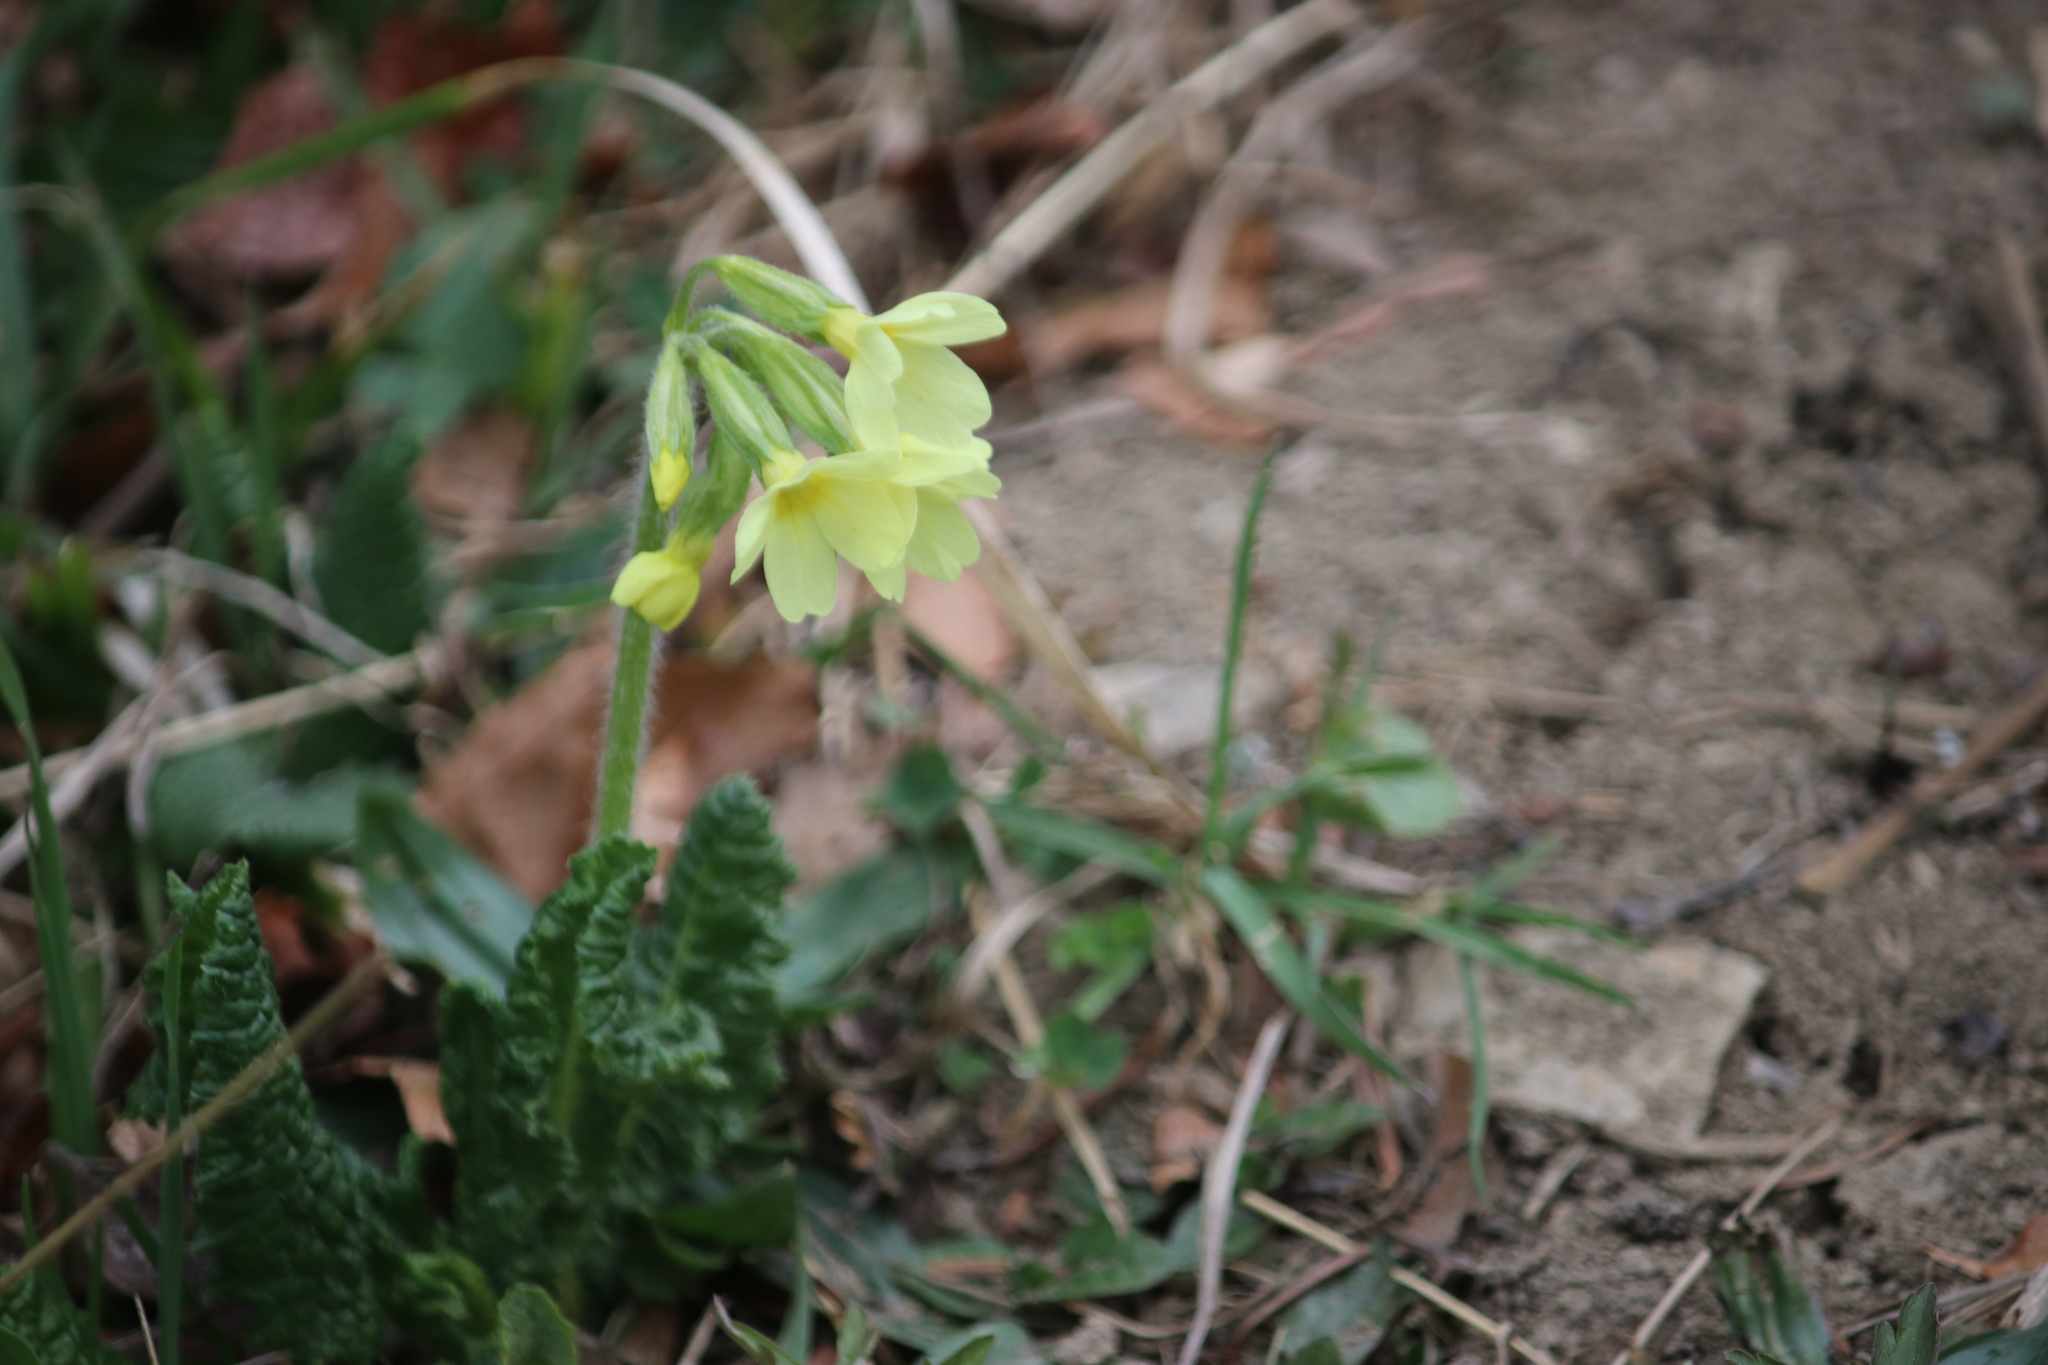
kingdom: Plantae
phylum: Tracheophyta
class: Magnoliopsida
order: Ericales
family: Primulaceae
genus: Primula
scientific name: Primula elatior
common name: Oxlip
